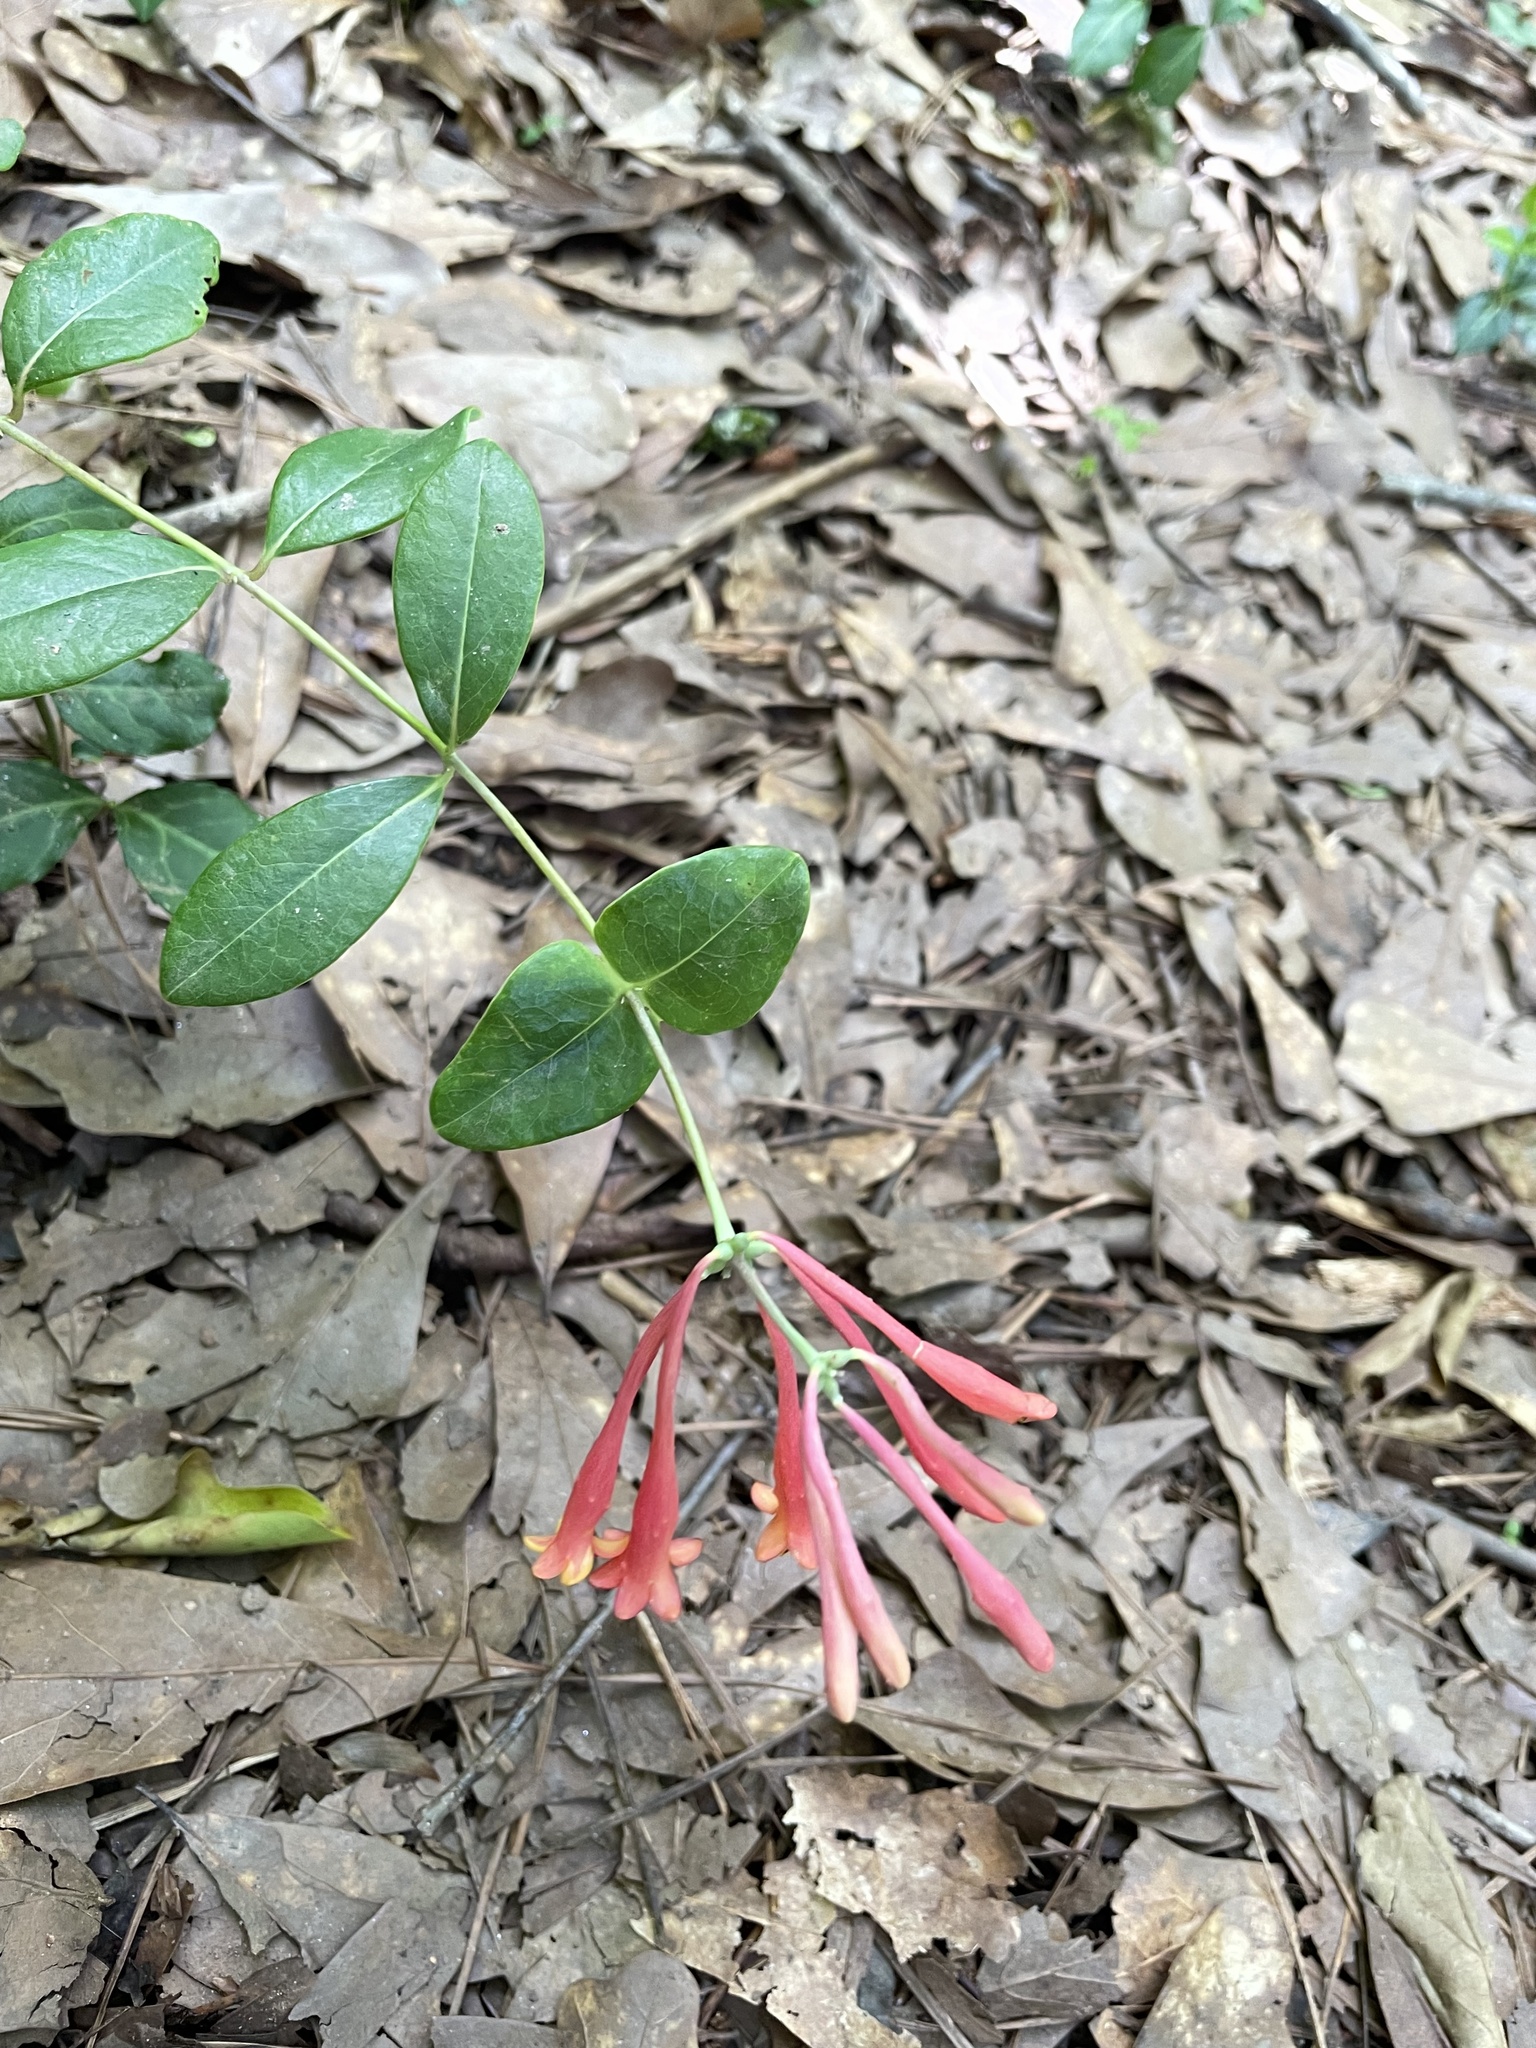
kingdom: Plantae
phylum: Tracheophyta
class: Magnoliopsida
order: Dipsacales
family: Caprifoliaceae
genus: Lonicera
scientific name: Lonicera sempervirens
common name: Coral honeysuckle
